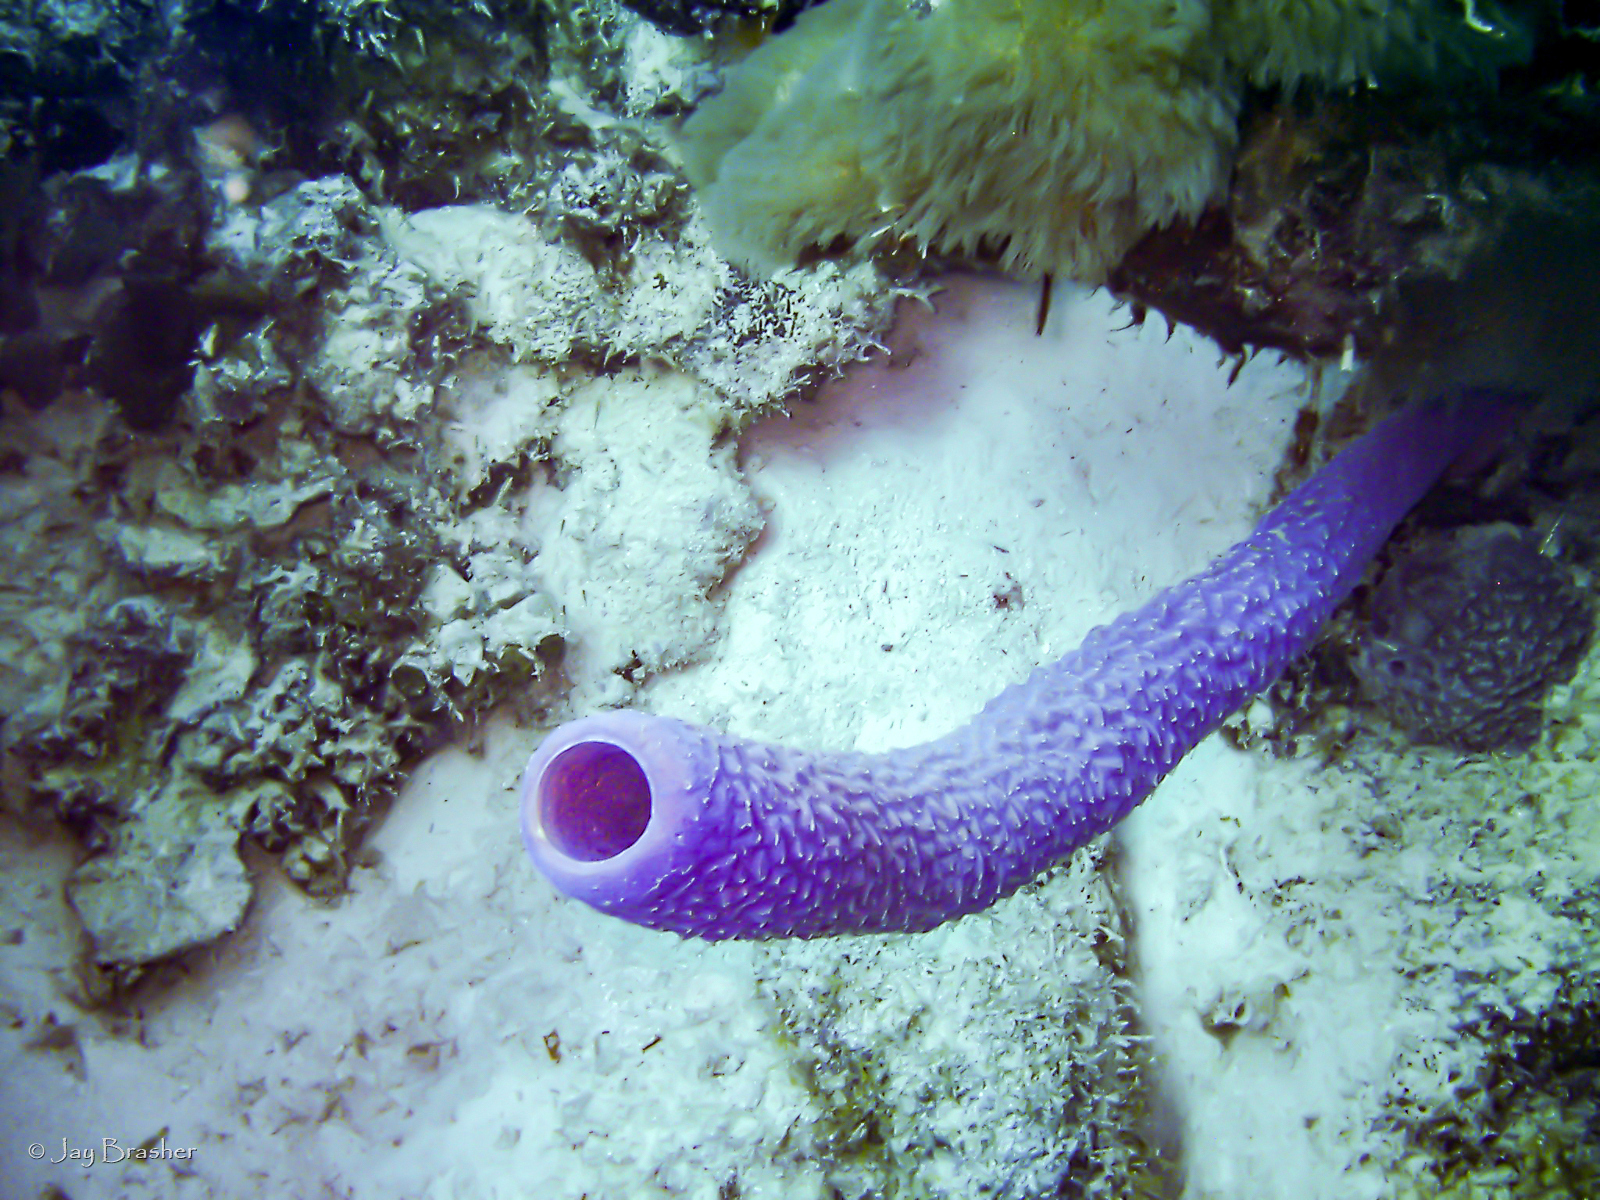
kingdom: Animalia
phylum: Porifera
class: Demospongiae
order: Verongiida
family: Aplysinidae
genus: Aplysina
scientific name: Aplysina archeri
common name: Stove-pipe sponge
